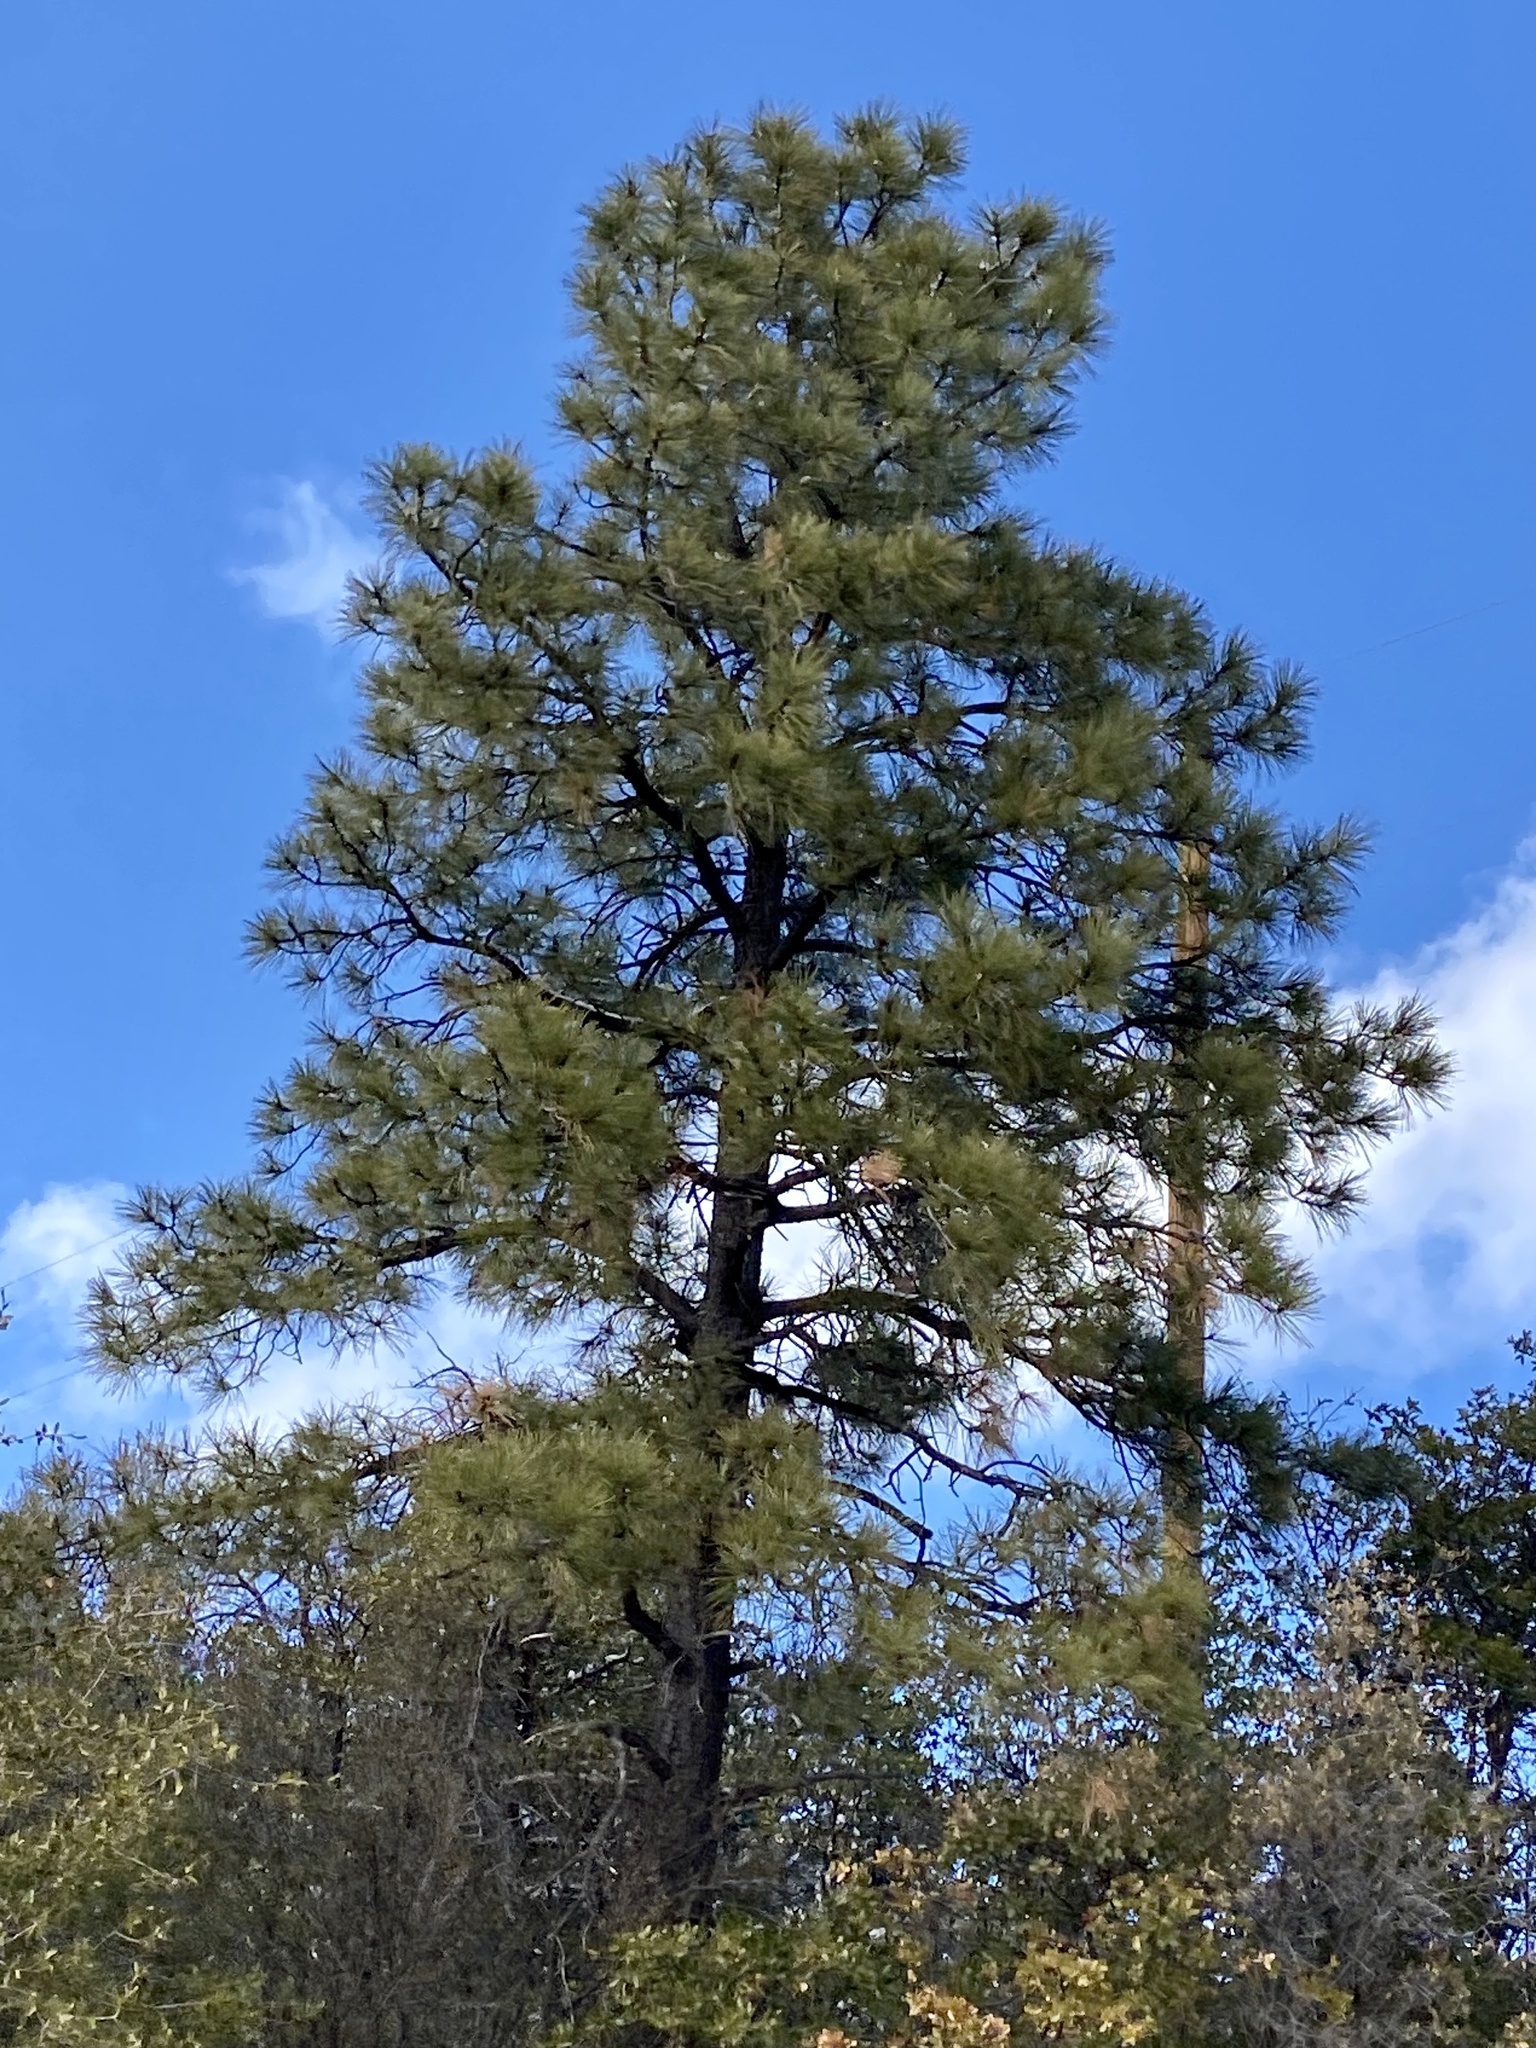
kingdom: Plantae
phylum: Tracheophyta
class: Pinopsida
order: Pinales
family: Pinaceae
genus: Pinus
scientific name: Pinus ponderosa
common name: Western yellow-pine
